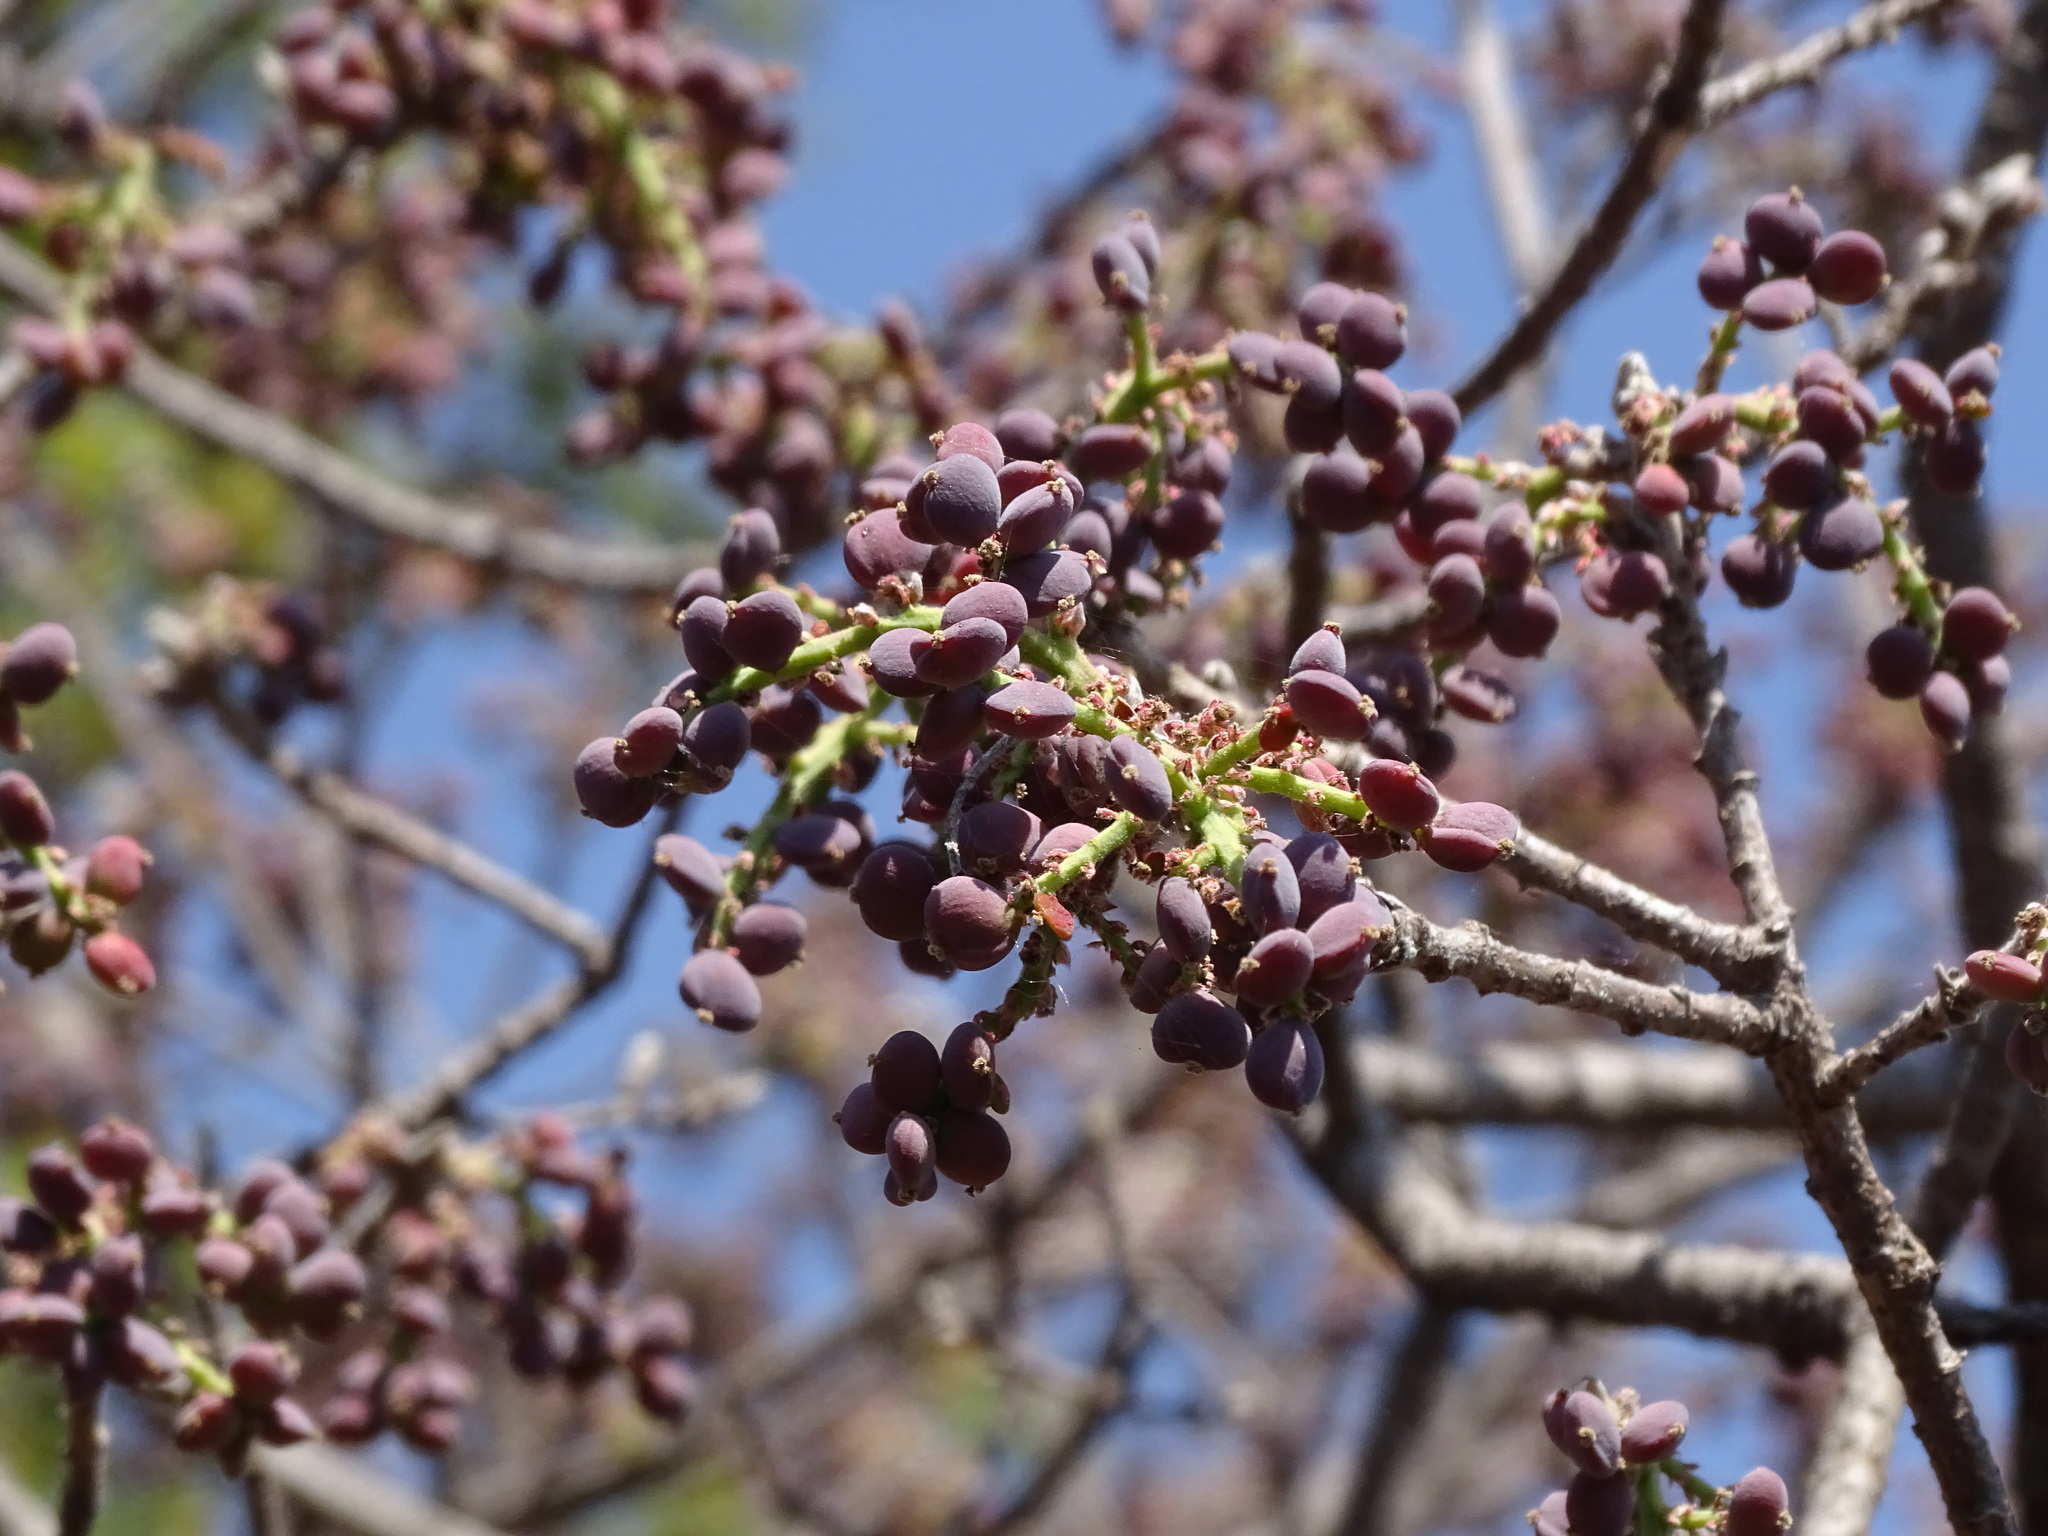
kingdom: Plantae
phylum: Tracheophyta
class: Magnoliopsida
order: Sapindales
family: Anacardiaceae
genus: Pistacia
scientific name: Pistacia mexicana
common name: Mexican pistachio
